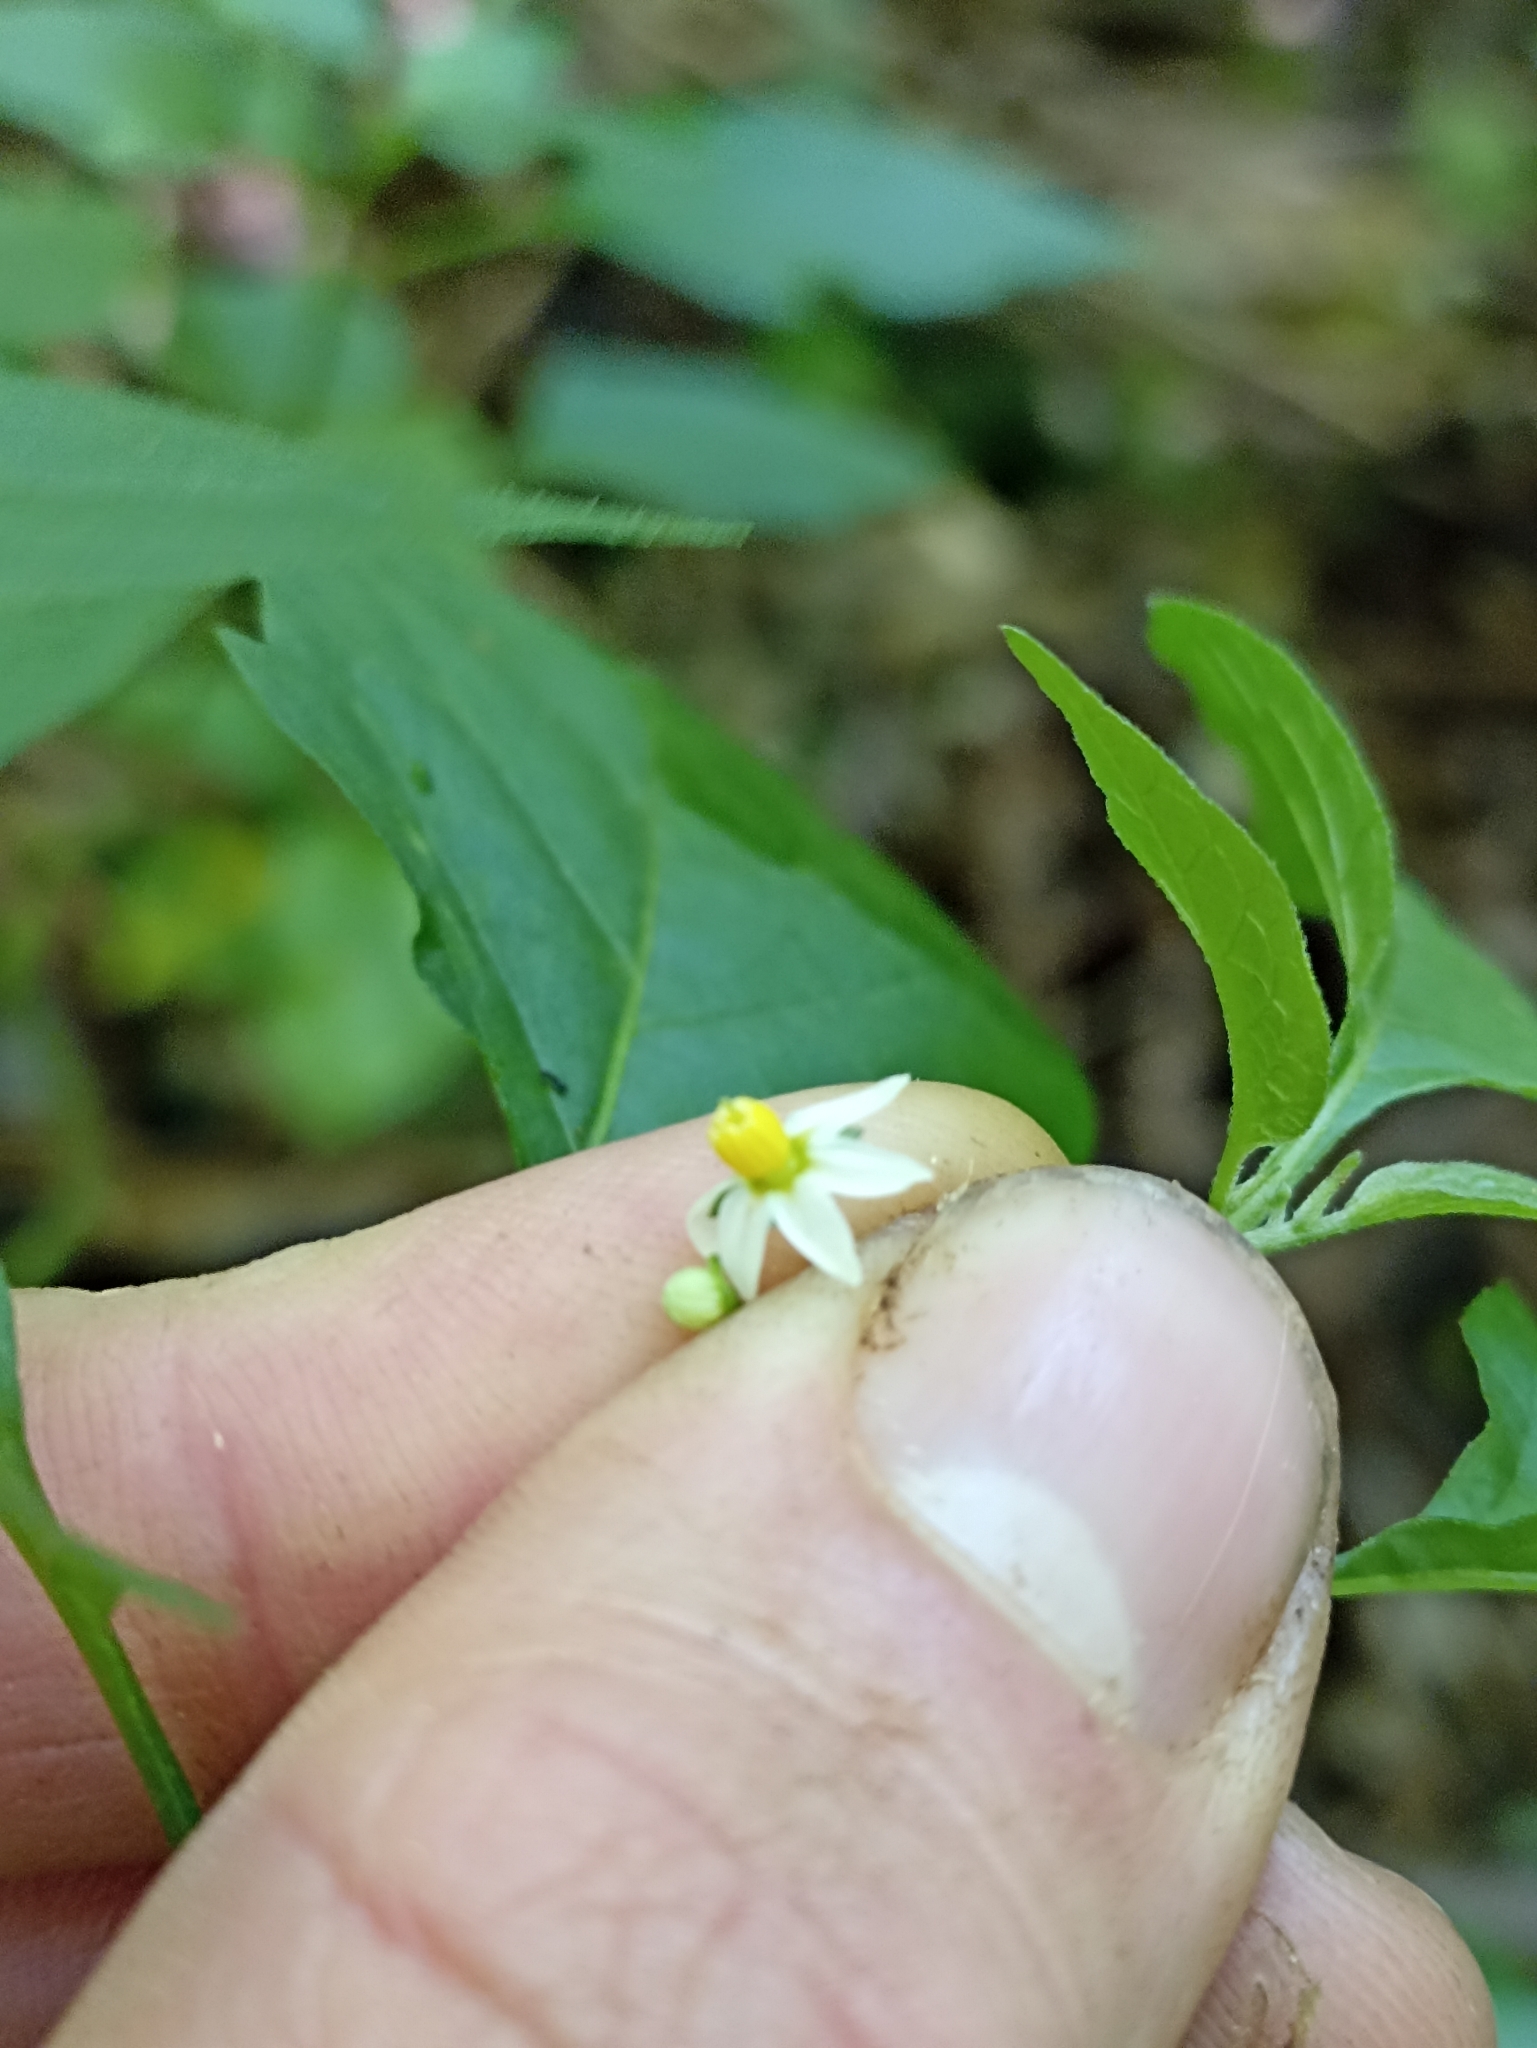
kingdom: Plantae
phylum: Tracheophyta
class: Magnoliopsida
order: Solanales
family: Solanaceae
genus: Solanum
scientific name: Solanum nigrum
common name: Black nightshade
